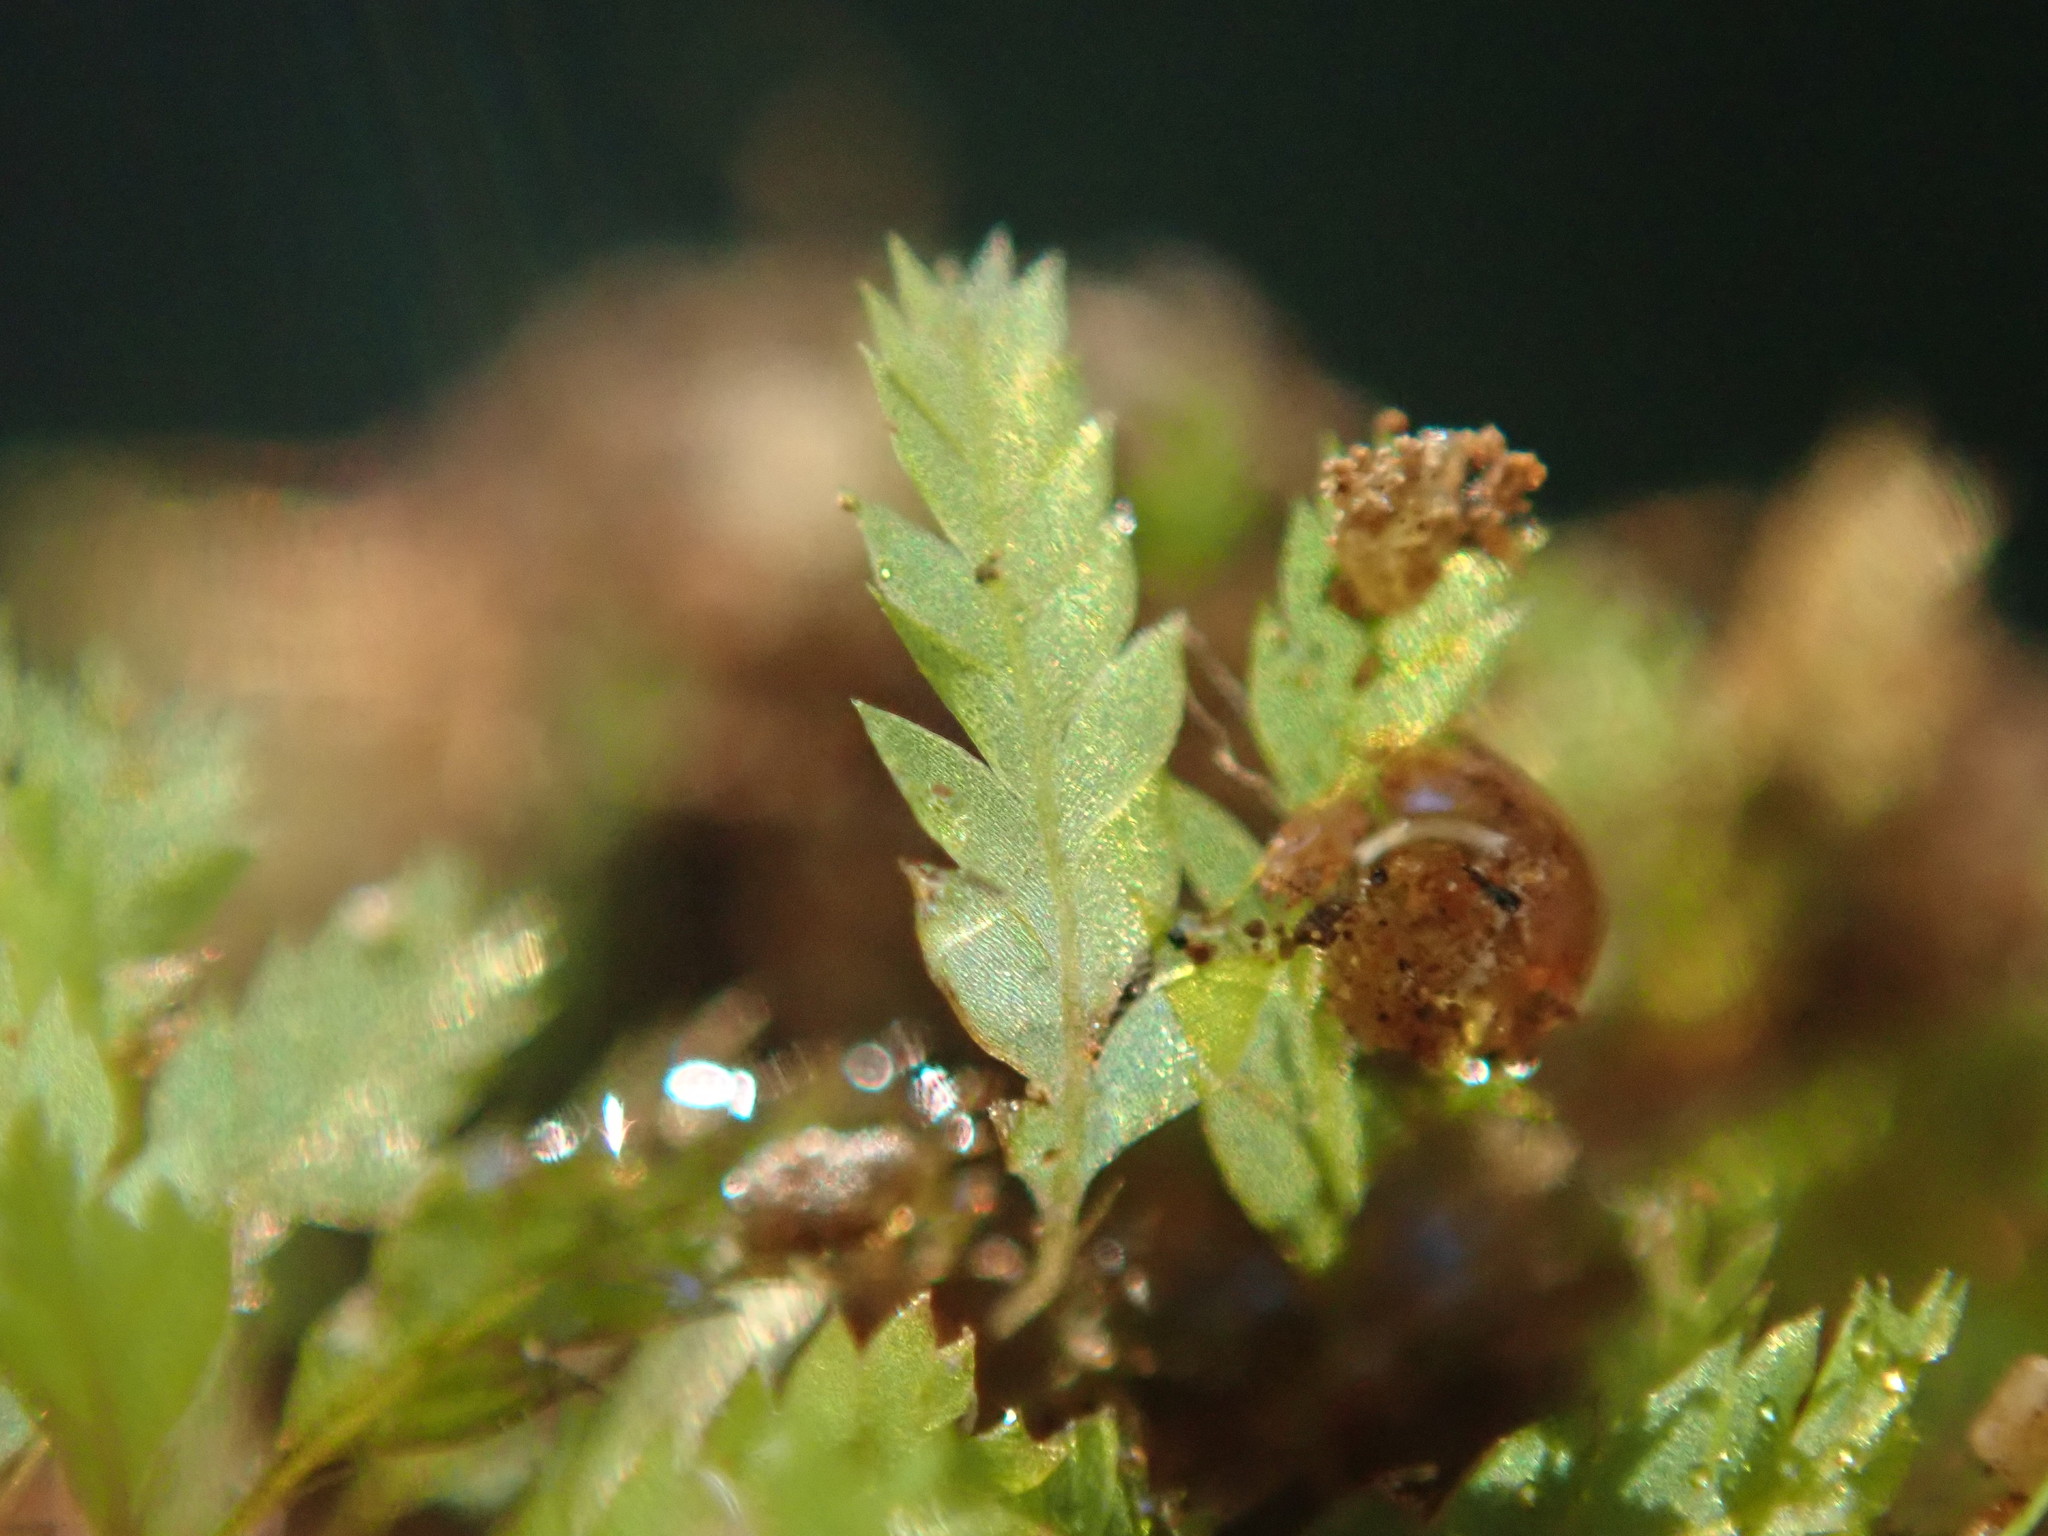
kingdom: Plantae
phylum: Bryophyta
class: Bryopsida
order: Dicranales
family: Schistostegaceae
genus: Schistostega
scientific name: Schistostega pennata
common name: Luminous moss
